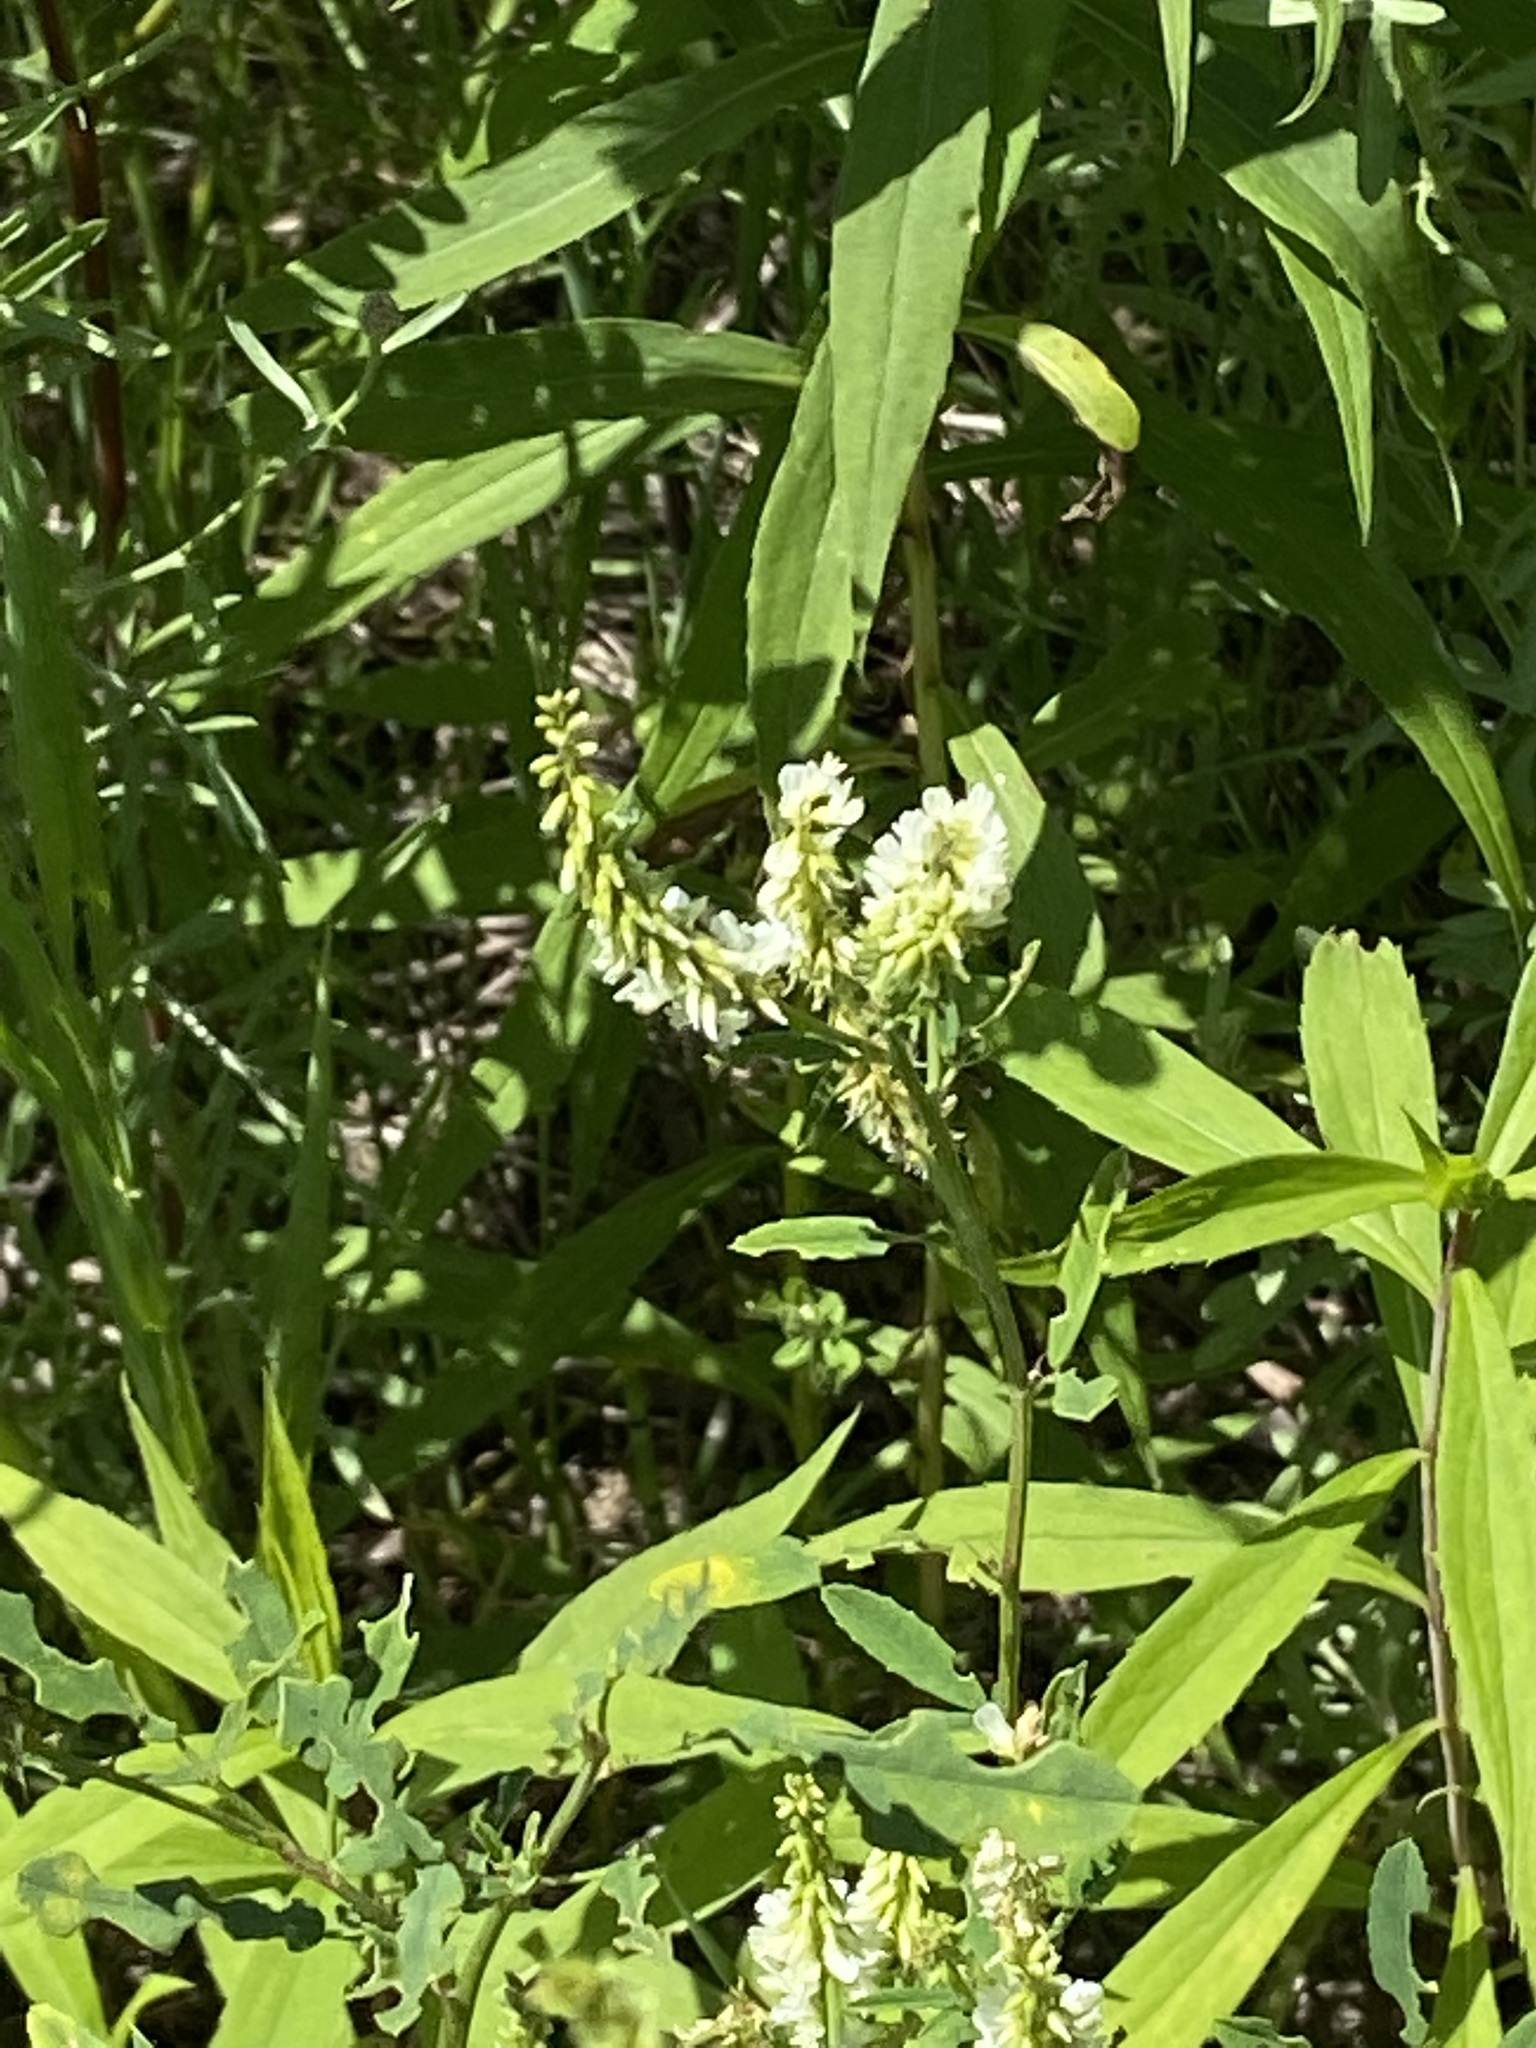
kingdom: Plantae
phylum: Tracheophyta
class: Magnoliopsida
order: Fabales
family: Fabaceae
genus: Melilotus
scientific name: Melilotus albus
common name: White melilot
